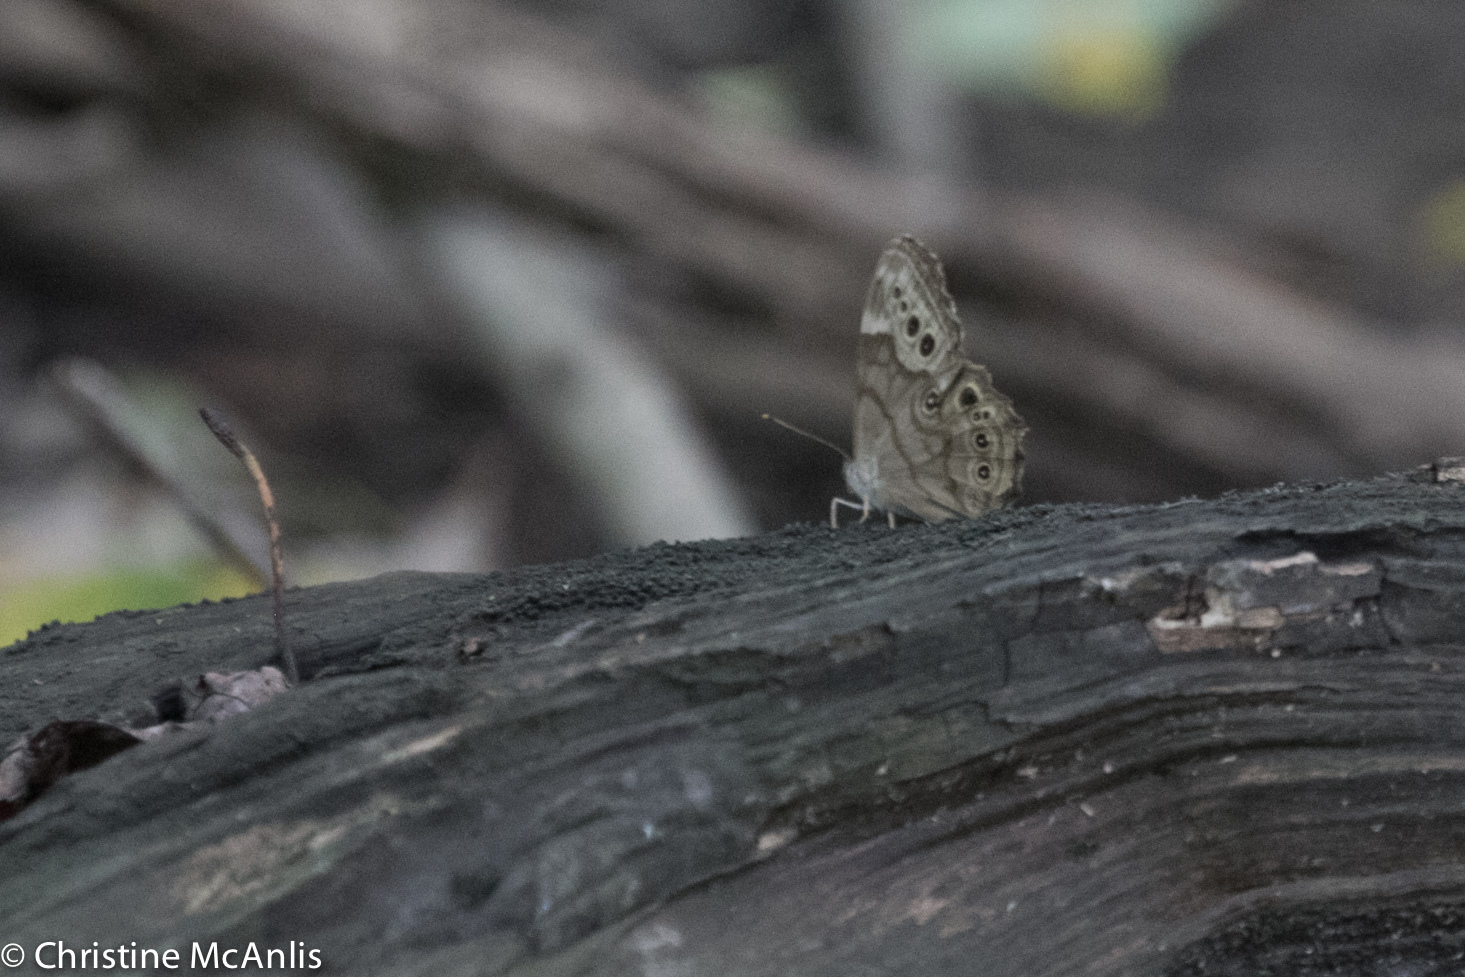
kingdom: Animalia
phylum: Arthropoda
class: Insecta
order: Lepidoptera
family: Nymphalidae
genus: Lethe
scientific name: Lethe anthedon
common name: Northern pearly-eye
